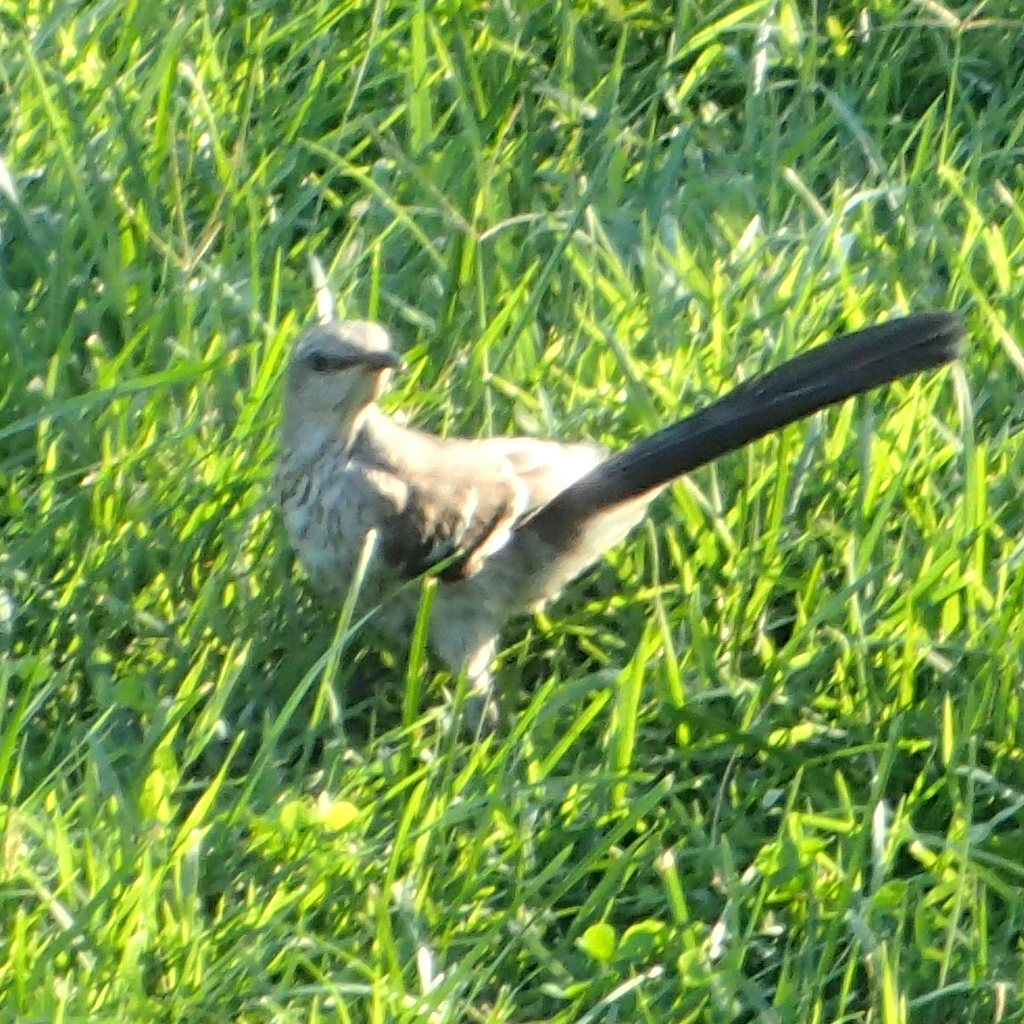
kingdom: Animalia
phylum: Chordata
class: Aves
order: Passeriformes
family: Mimidae
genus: Mimus
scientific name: Mimus polyglottos
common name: Northern mockingbird
